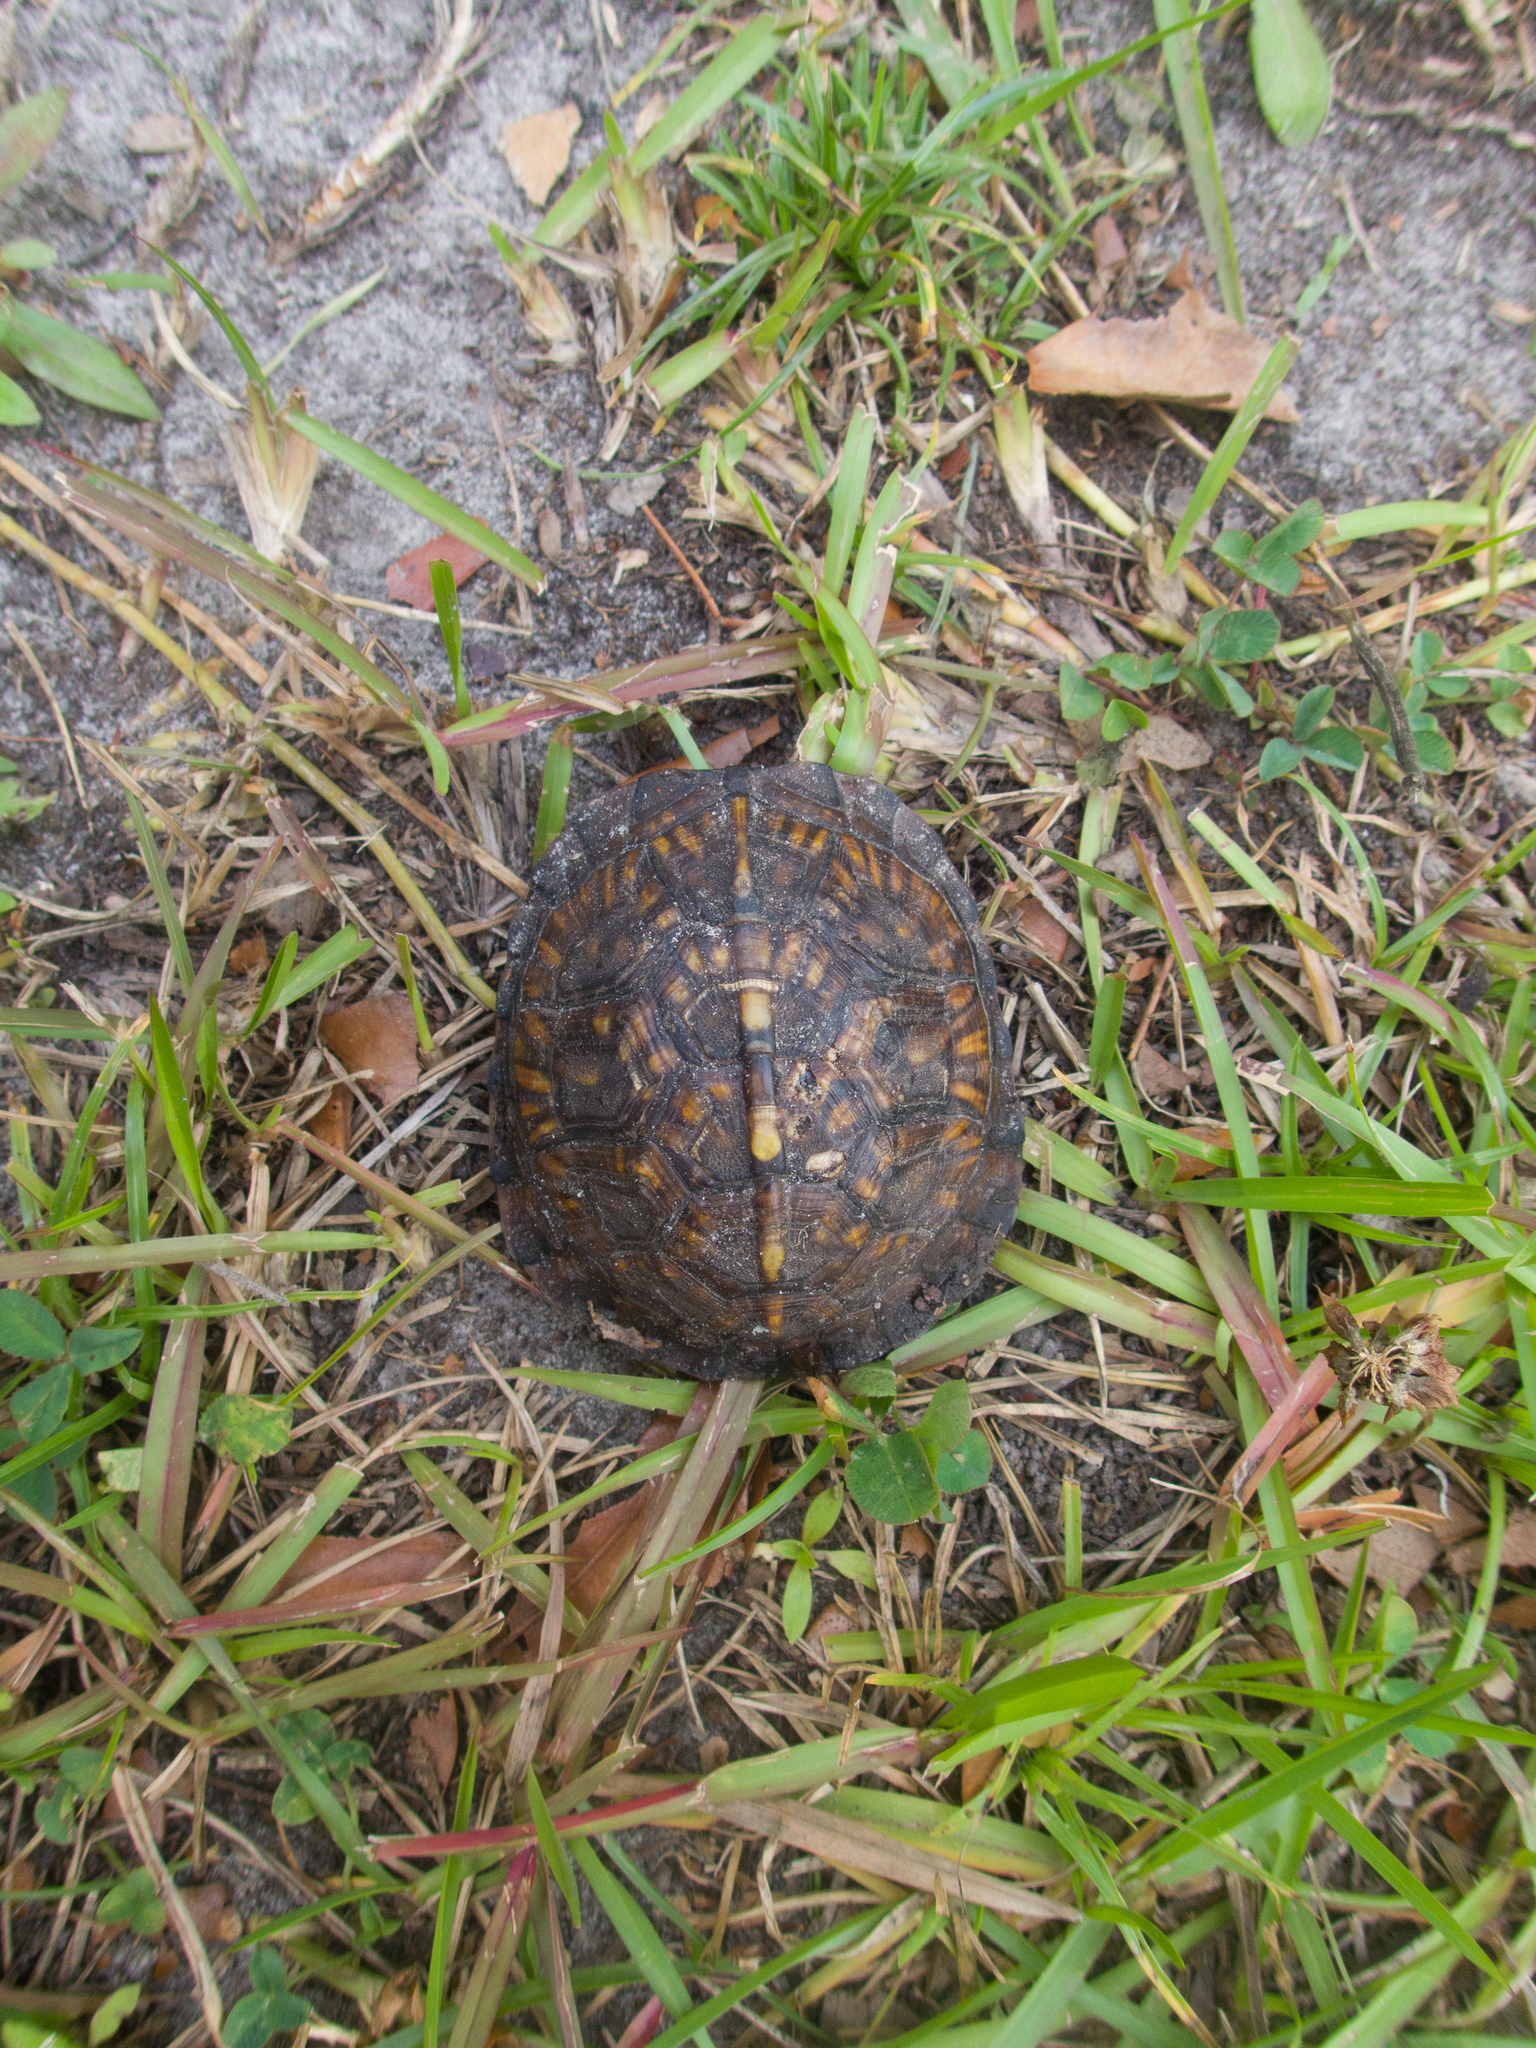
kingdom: Animalia
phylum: Chordata
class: Testudines
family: Emydidae
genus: Terrapene
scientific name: Terrapene carolina
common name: Common box turtle
